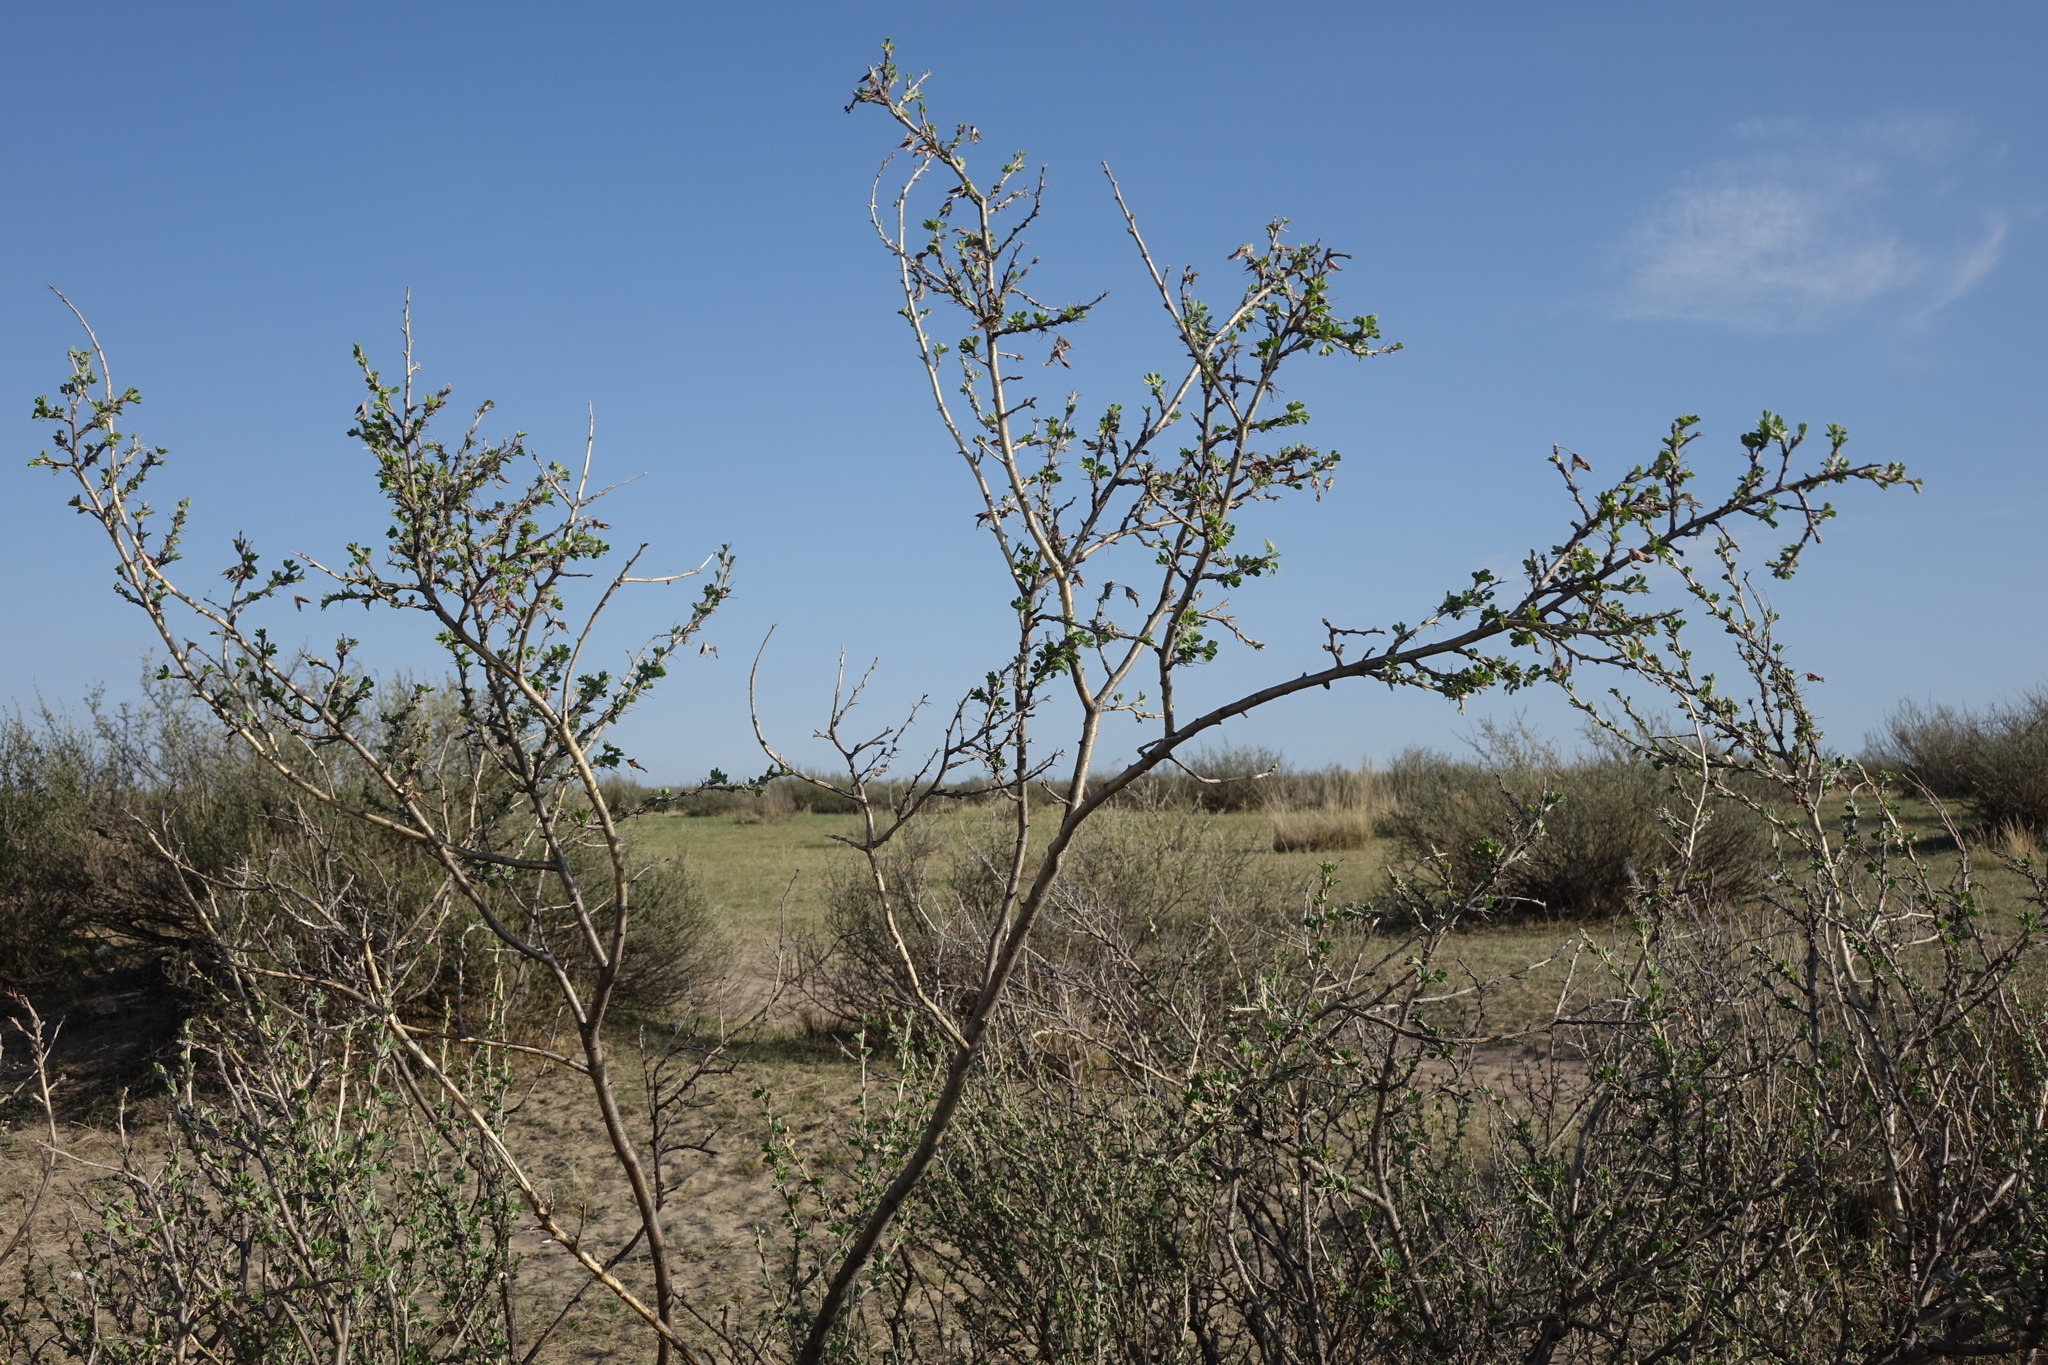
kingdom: Plantae
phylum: Tracheophyta
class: Magnoliopsida
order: Fabales
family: Fabaceae
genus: Caragana
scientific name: Caragana bungei
